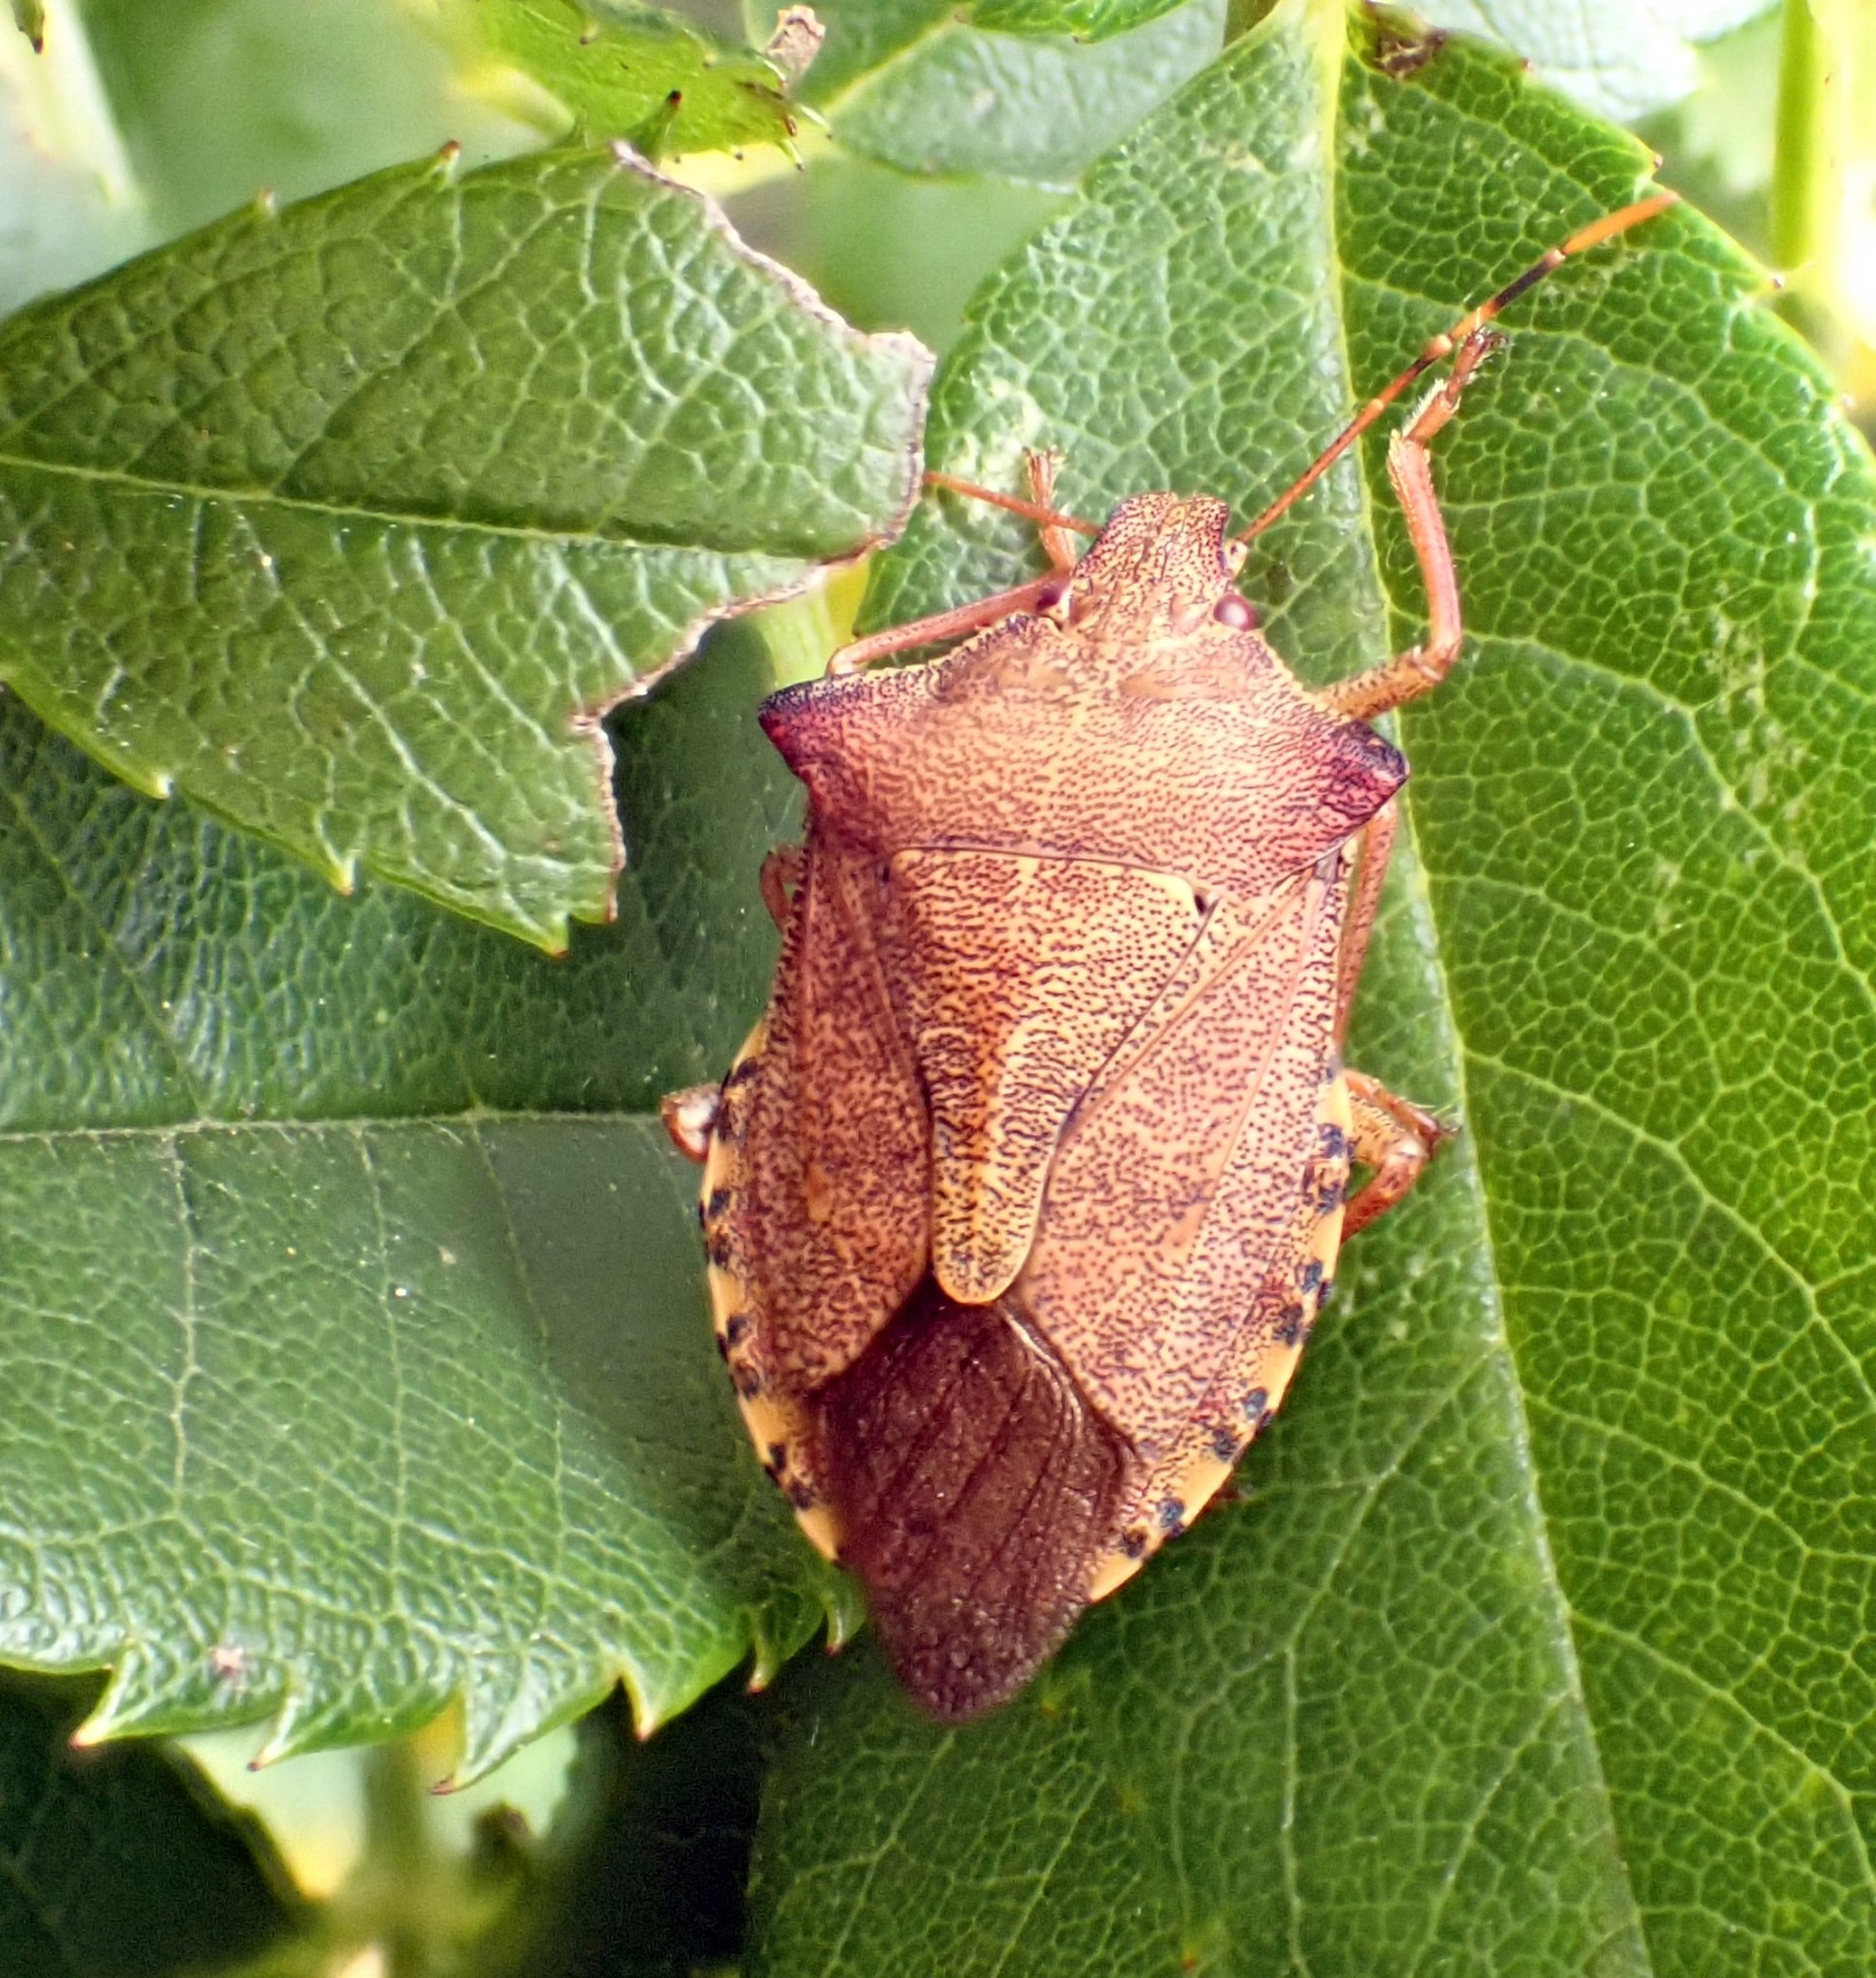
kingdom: Animalia
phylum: Arthropoda
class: Insecta
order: Hemiptera
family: Pentatomidae
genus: Arma
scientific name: Arma custos
